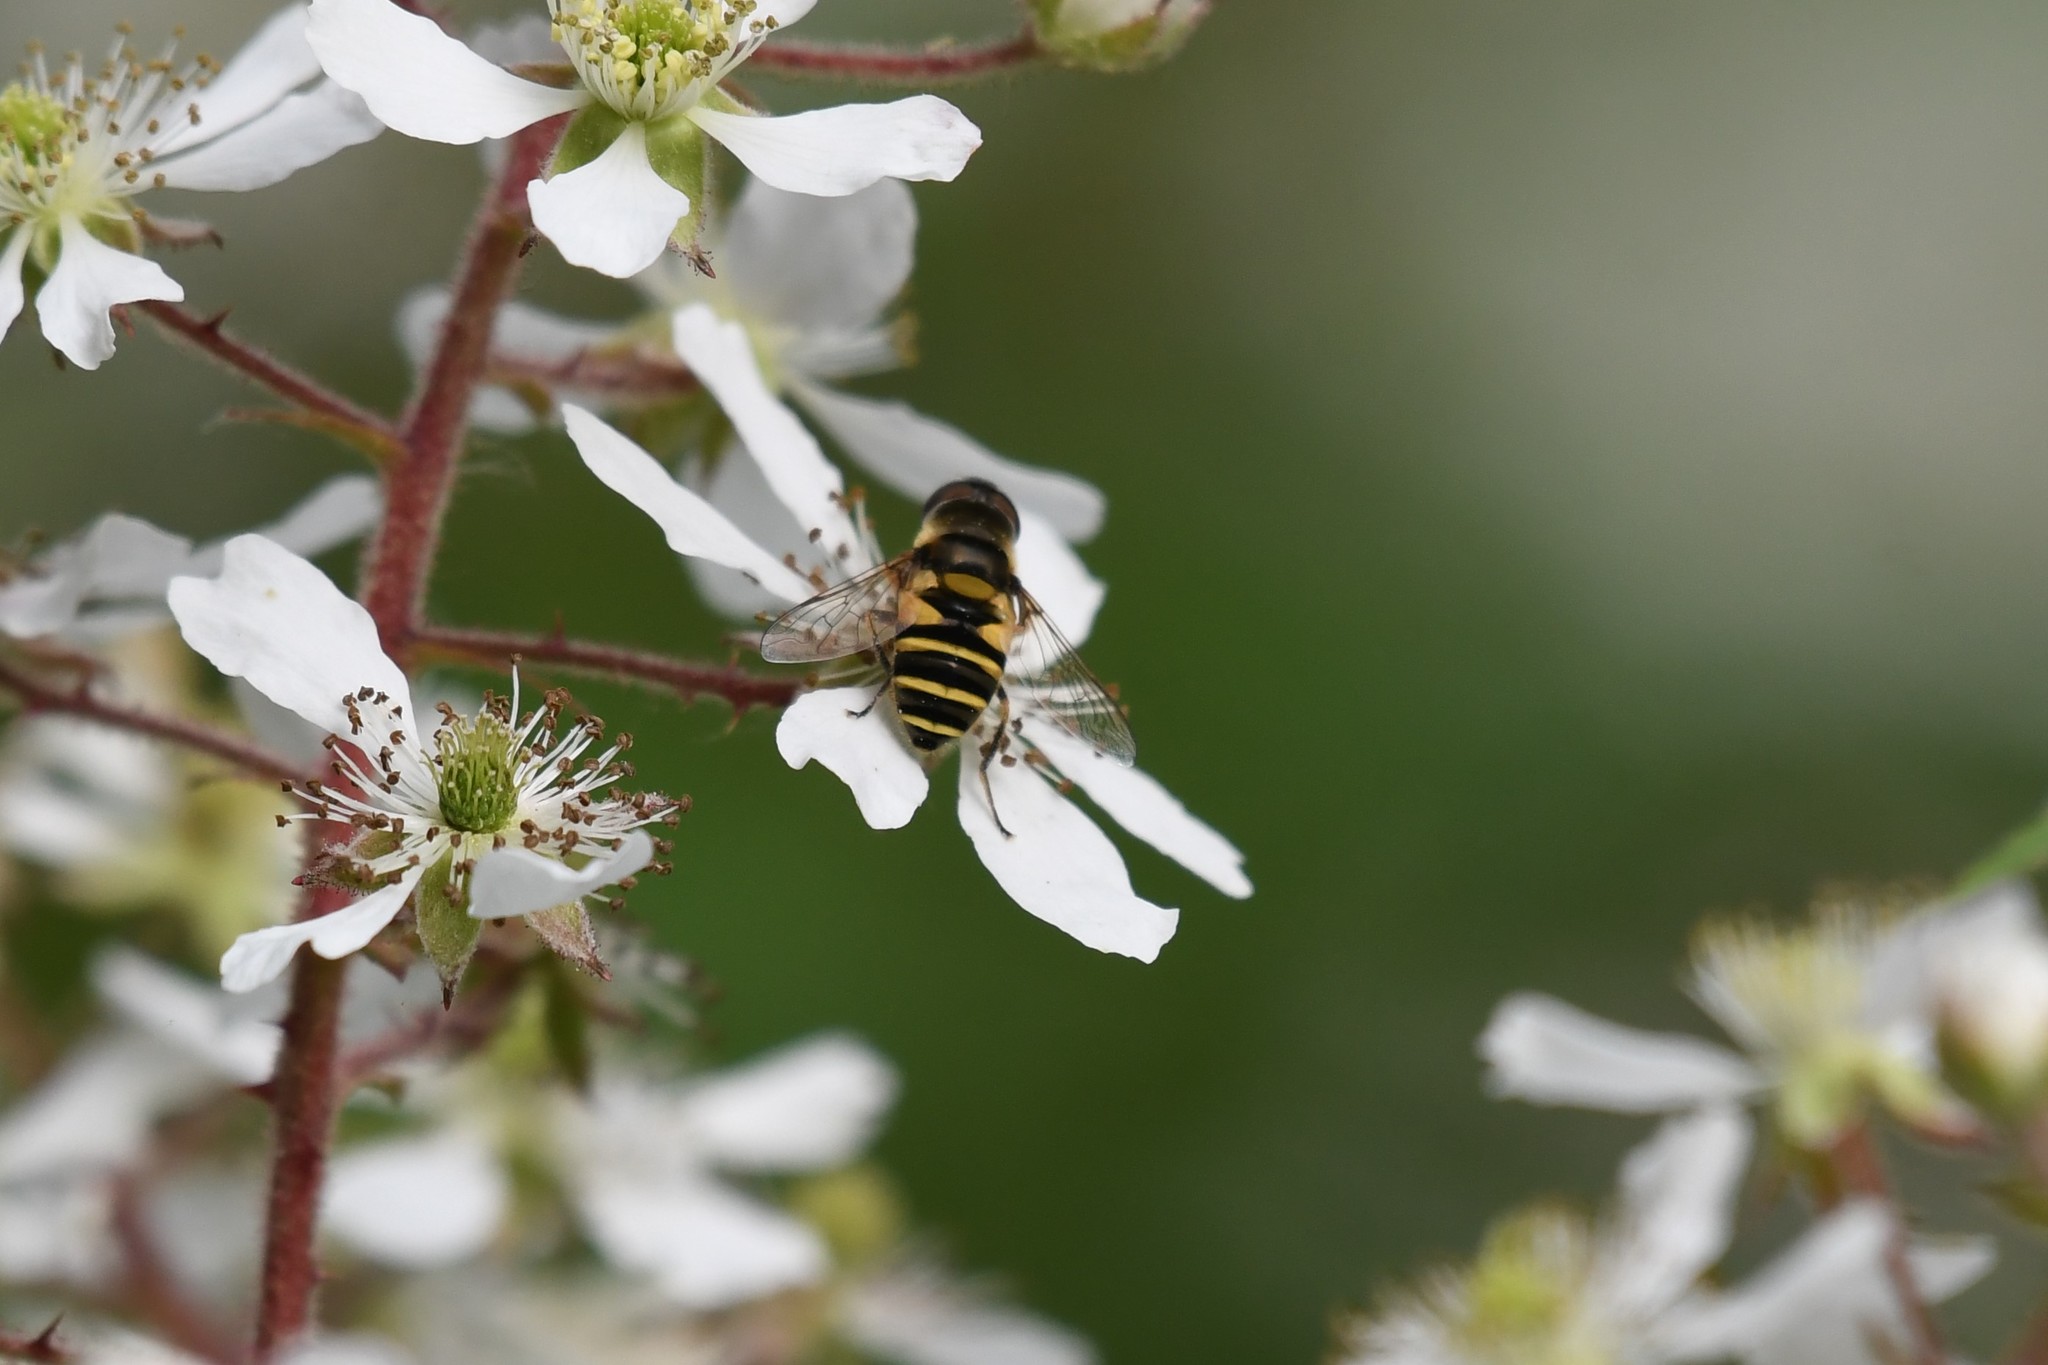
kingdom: Animalia
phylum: Arthropoda
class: Insecta
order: Diptera
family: Syrphidae
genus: Eristalis
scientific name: Eristalis transversa
